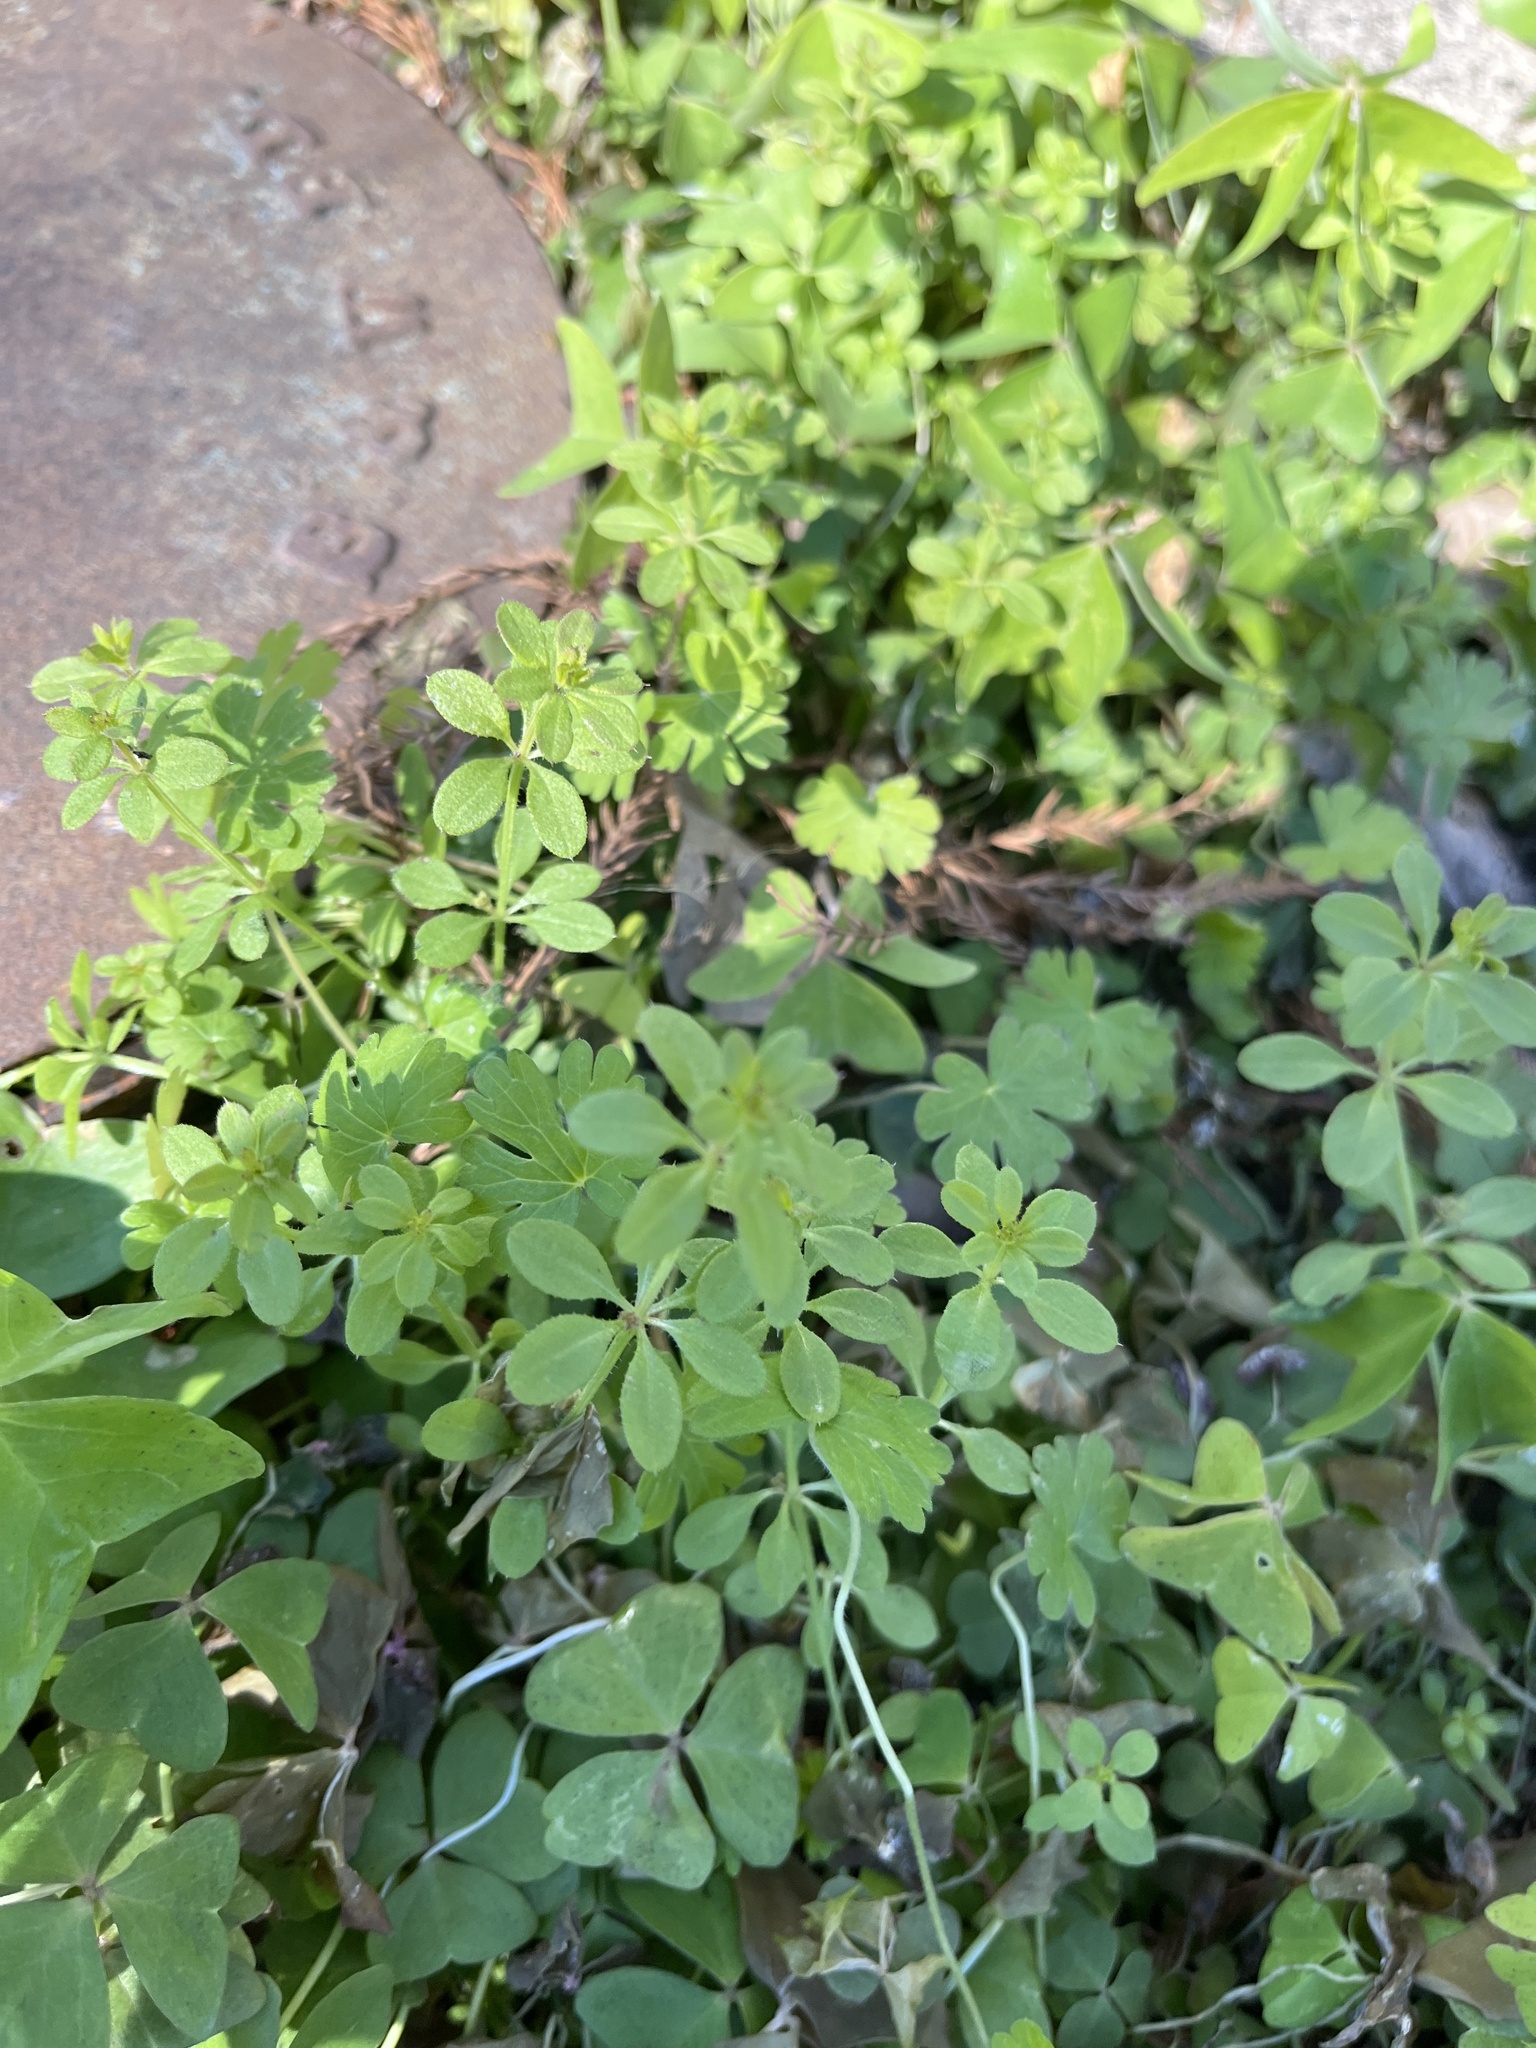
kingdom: Plantae
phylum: Tracheophyta
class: Magnoliopsida
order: Gentianales
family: Rubiaceae
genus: Galium
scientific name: Galium aparine
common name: Cleavers
